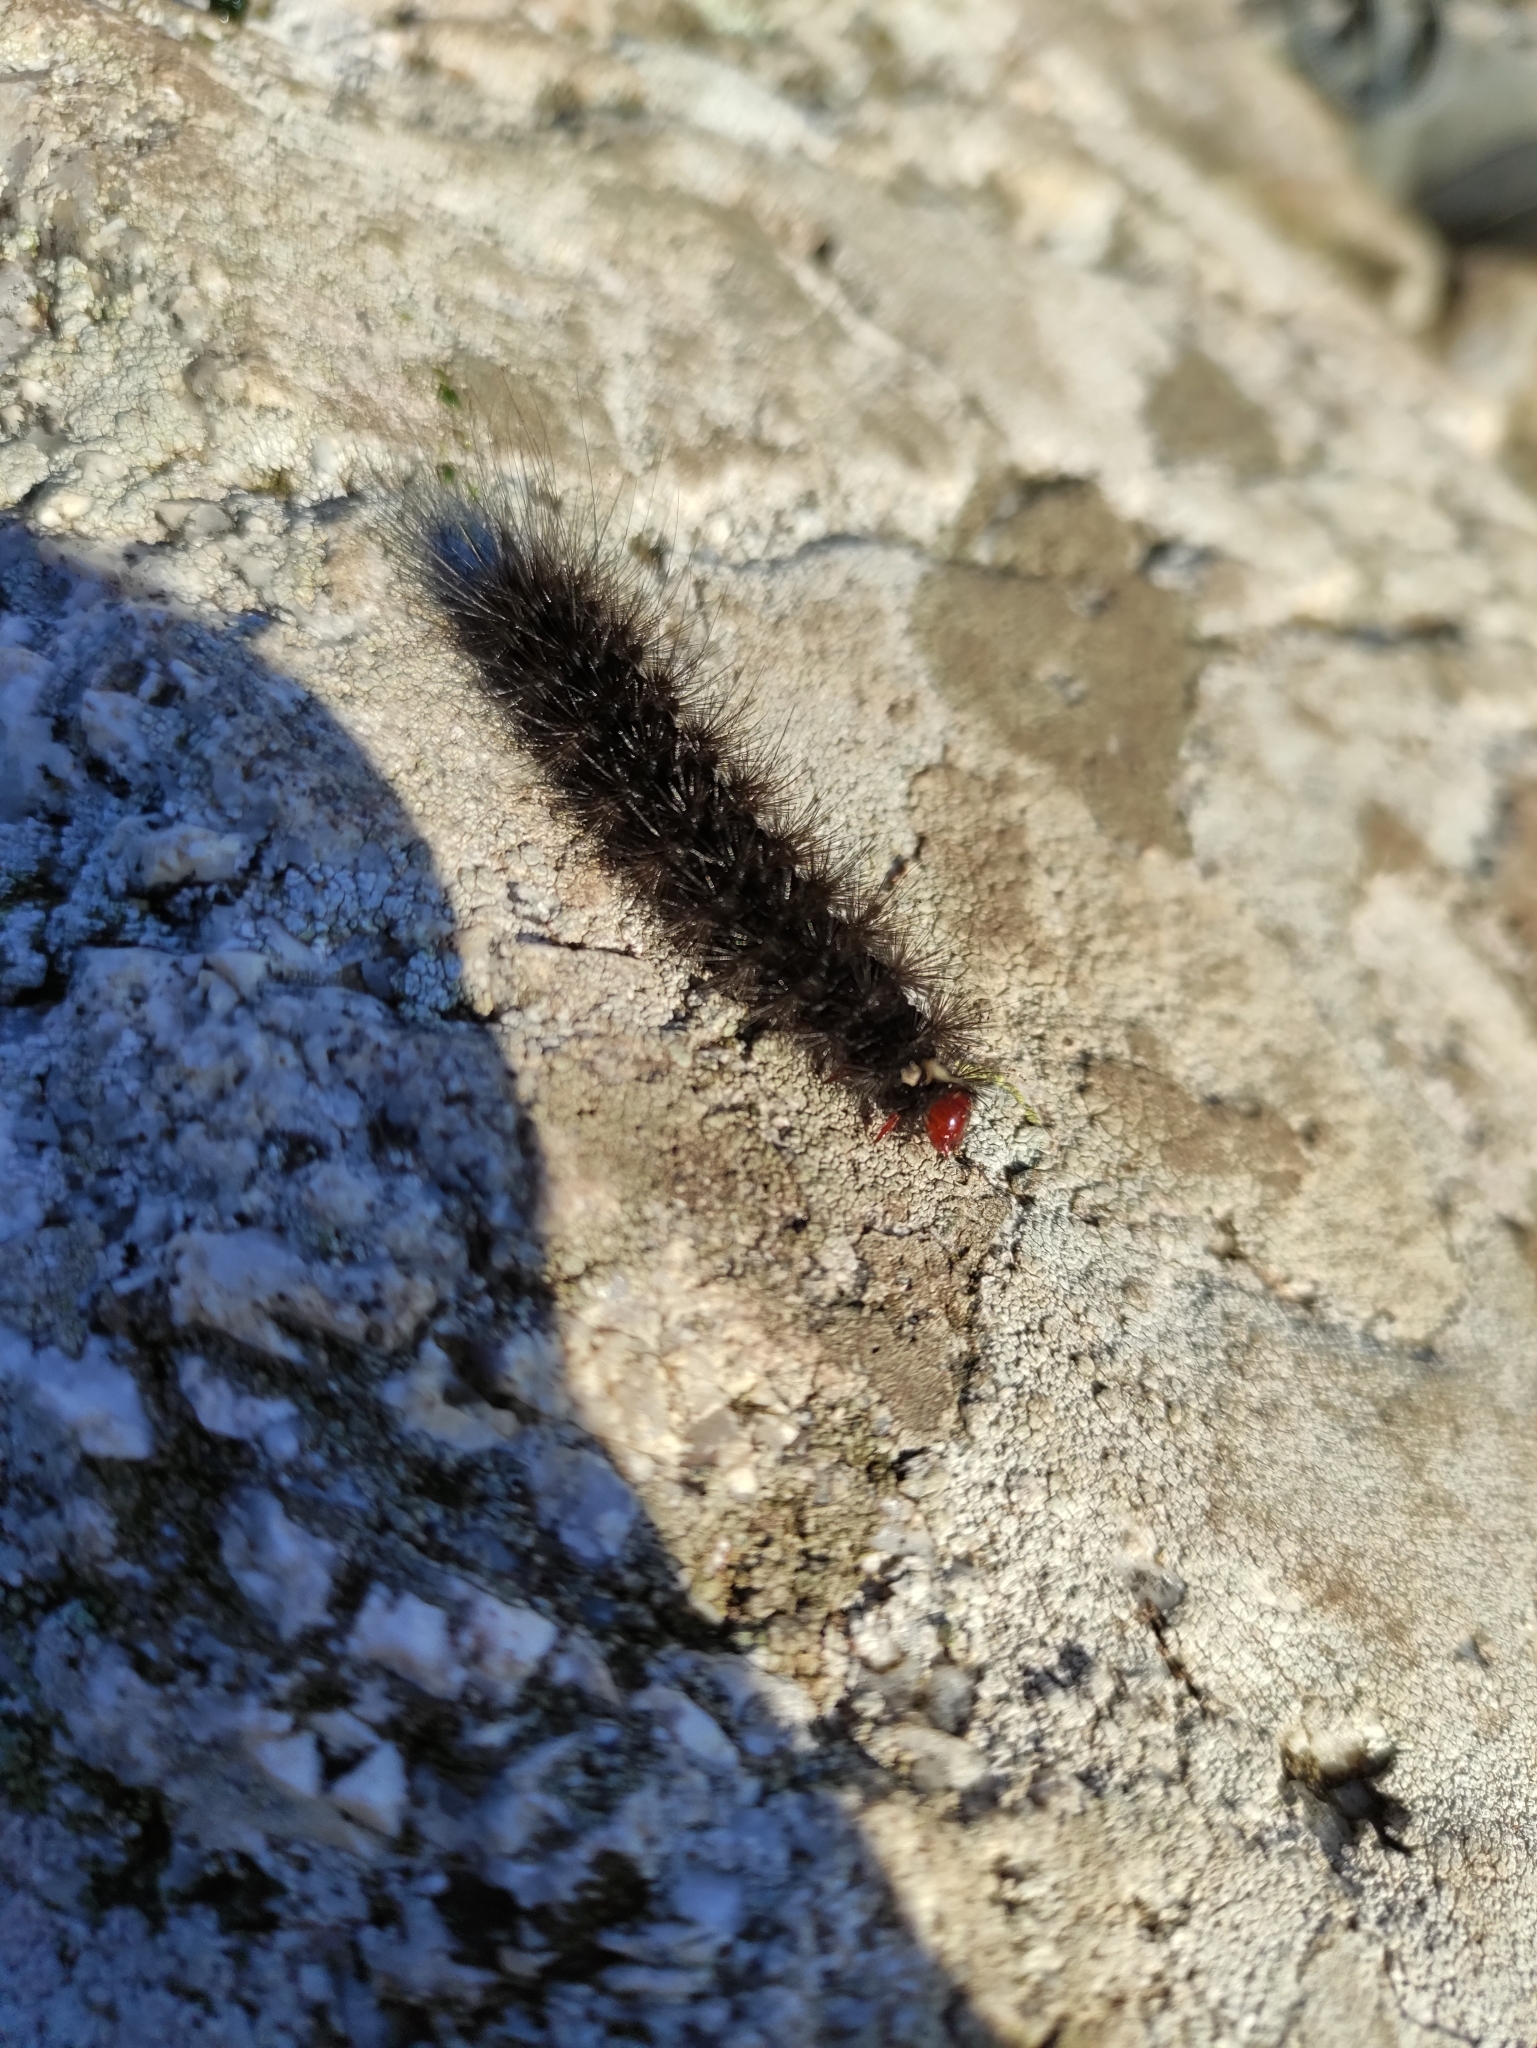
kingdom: Animalia
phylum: Arthropoda
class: Insecta
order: Lepidoptera
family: Erebidae
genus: Epicallia
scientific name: Epicallia villica
